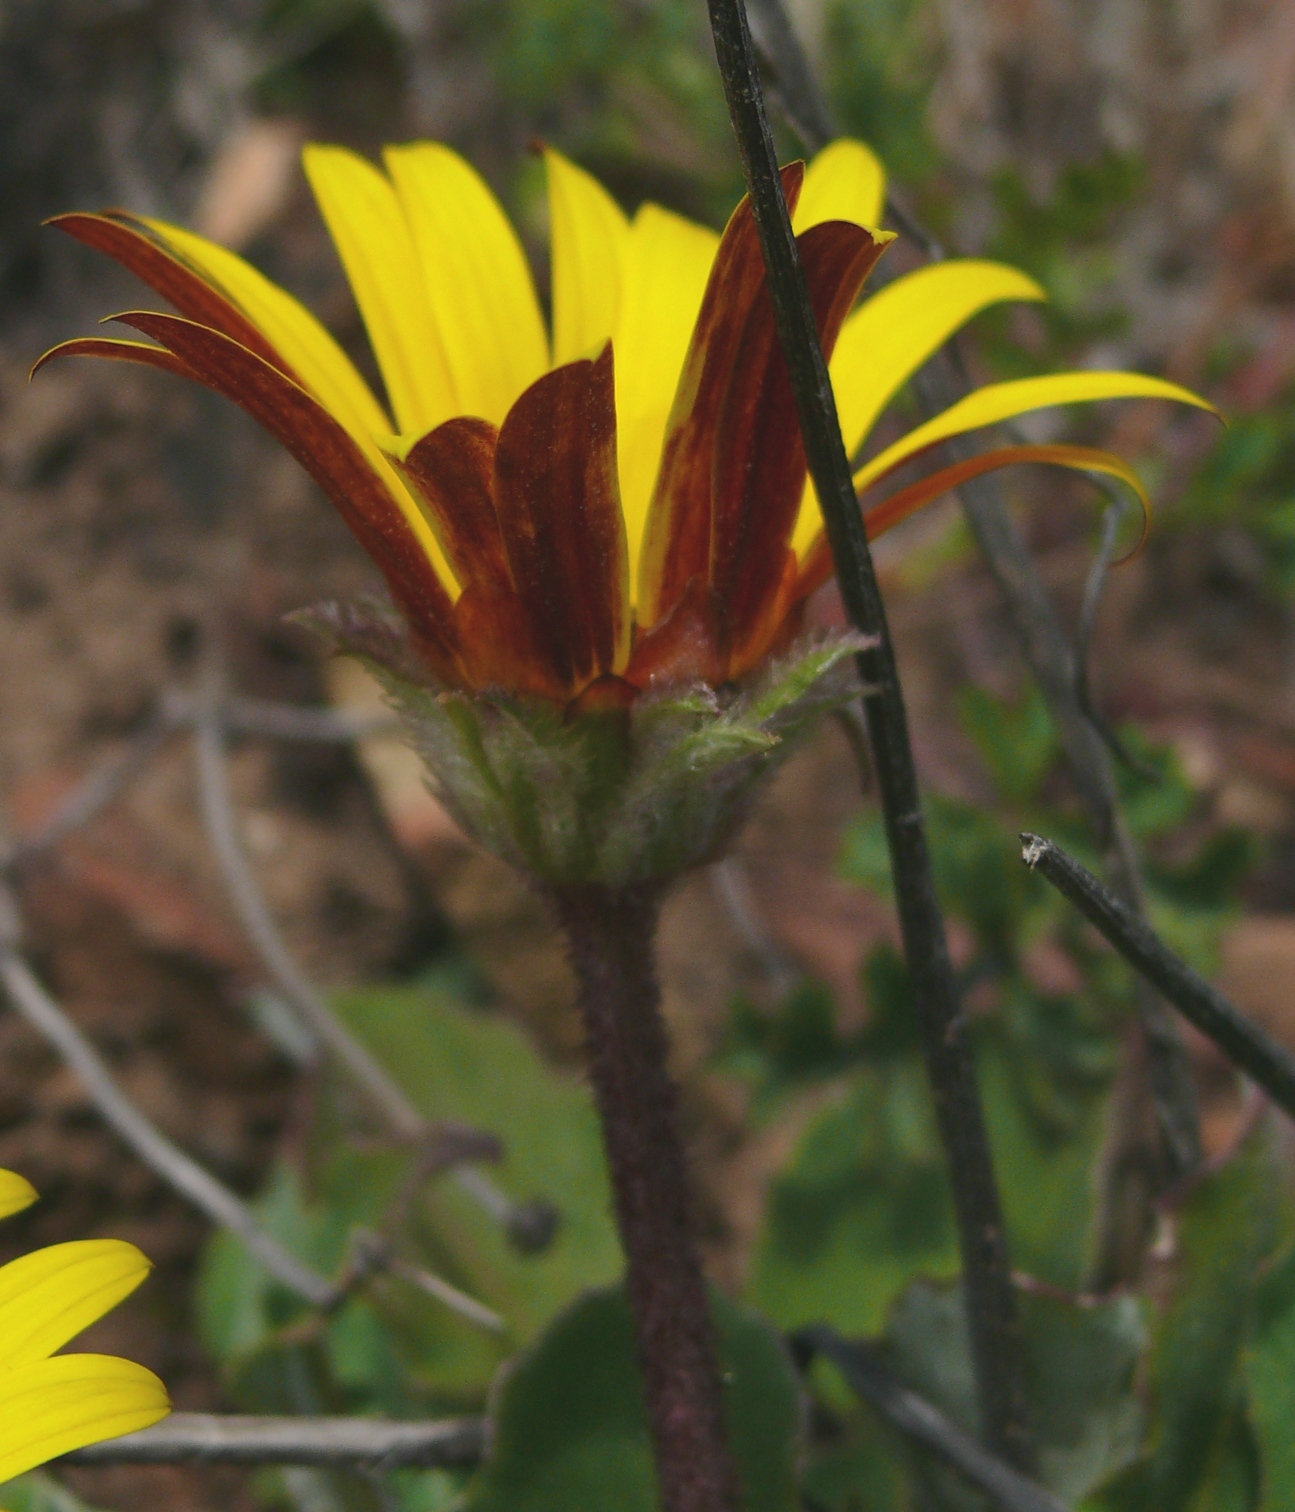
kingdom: Plantae
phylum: Tracheophyta
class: Magnoliopsida
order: Asterales
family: Asteraceae
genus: Arctotis
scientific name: Arctotis acaulis
